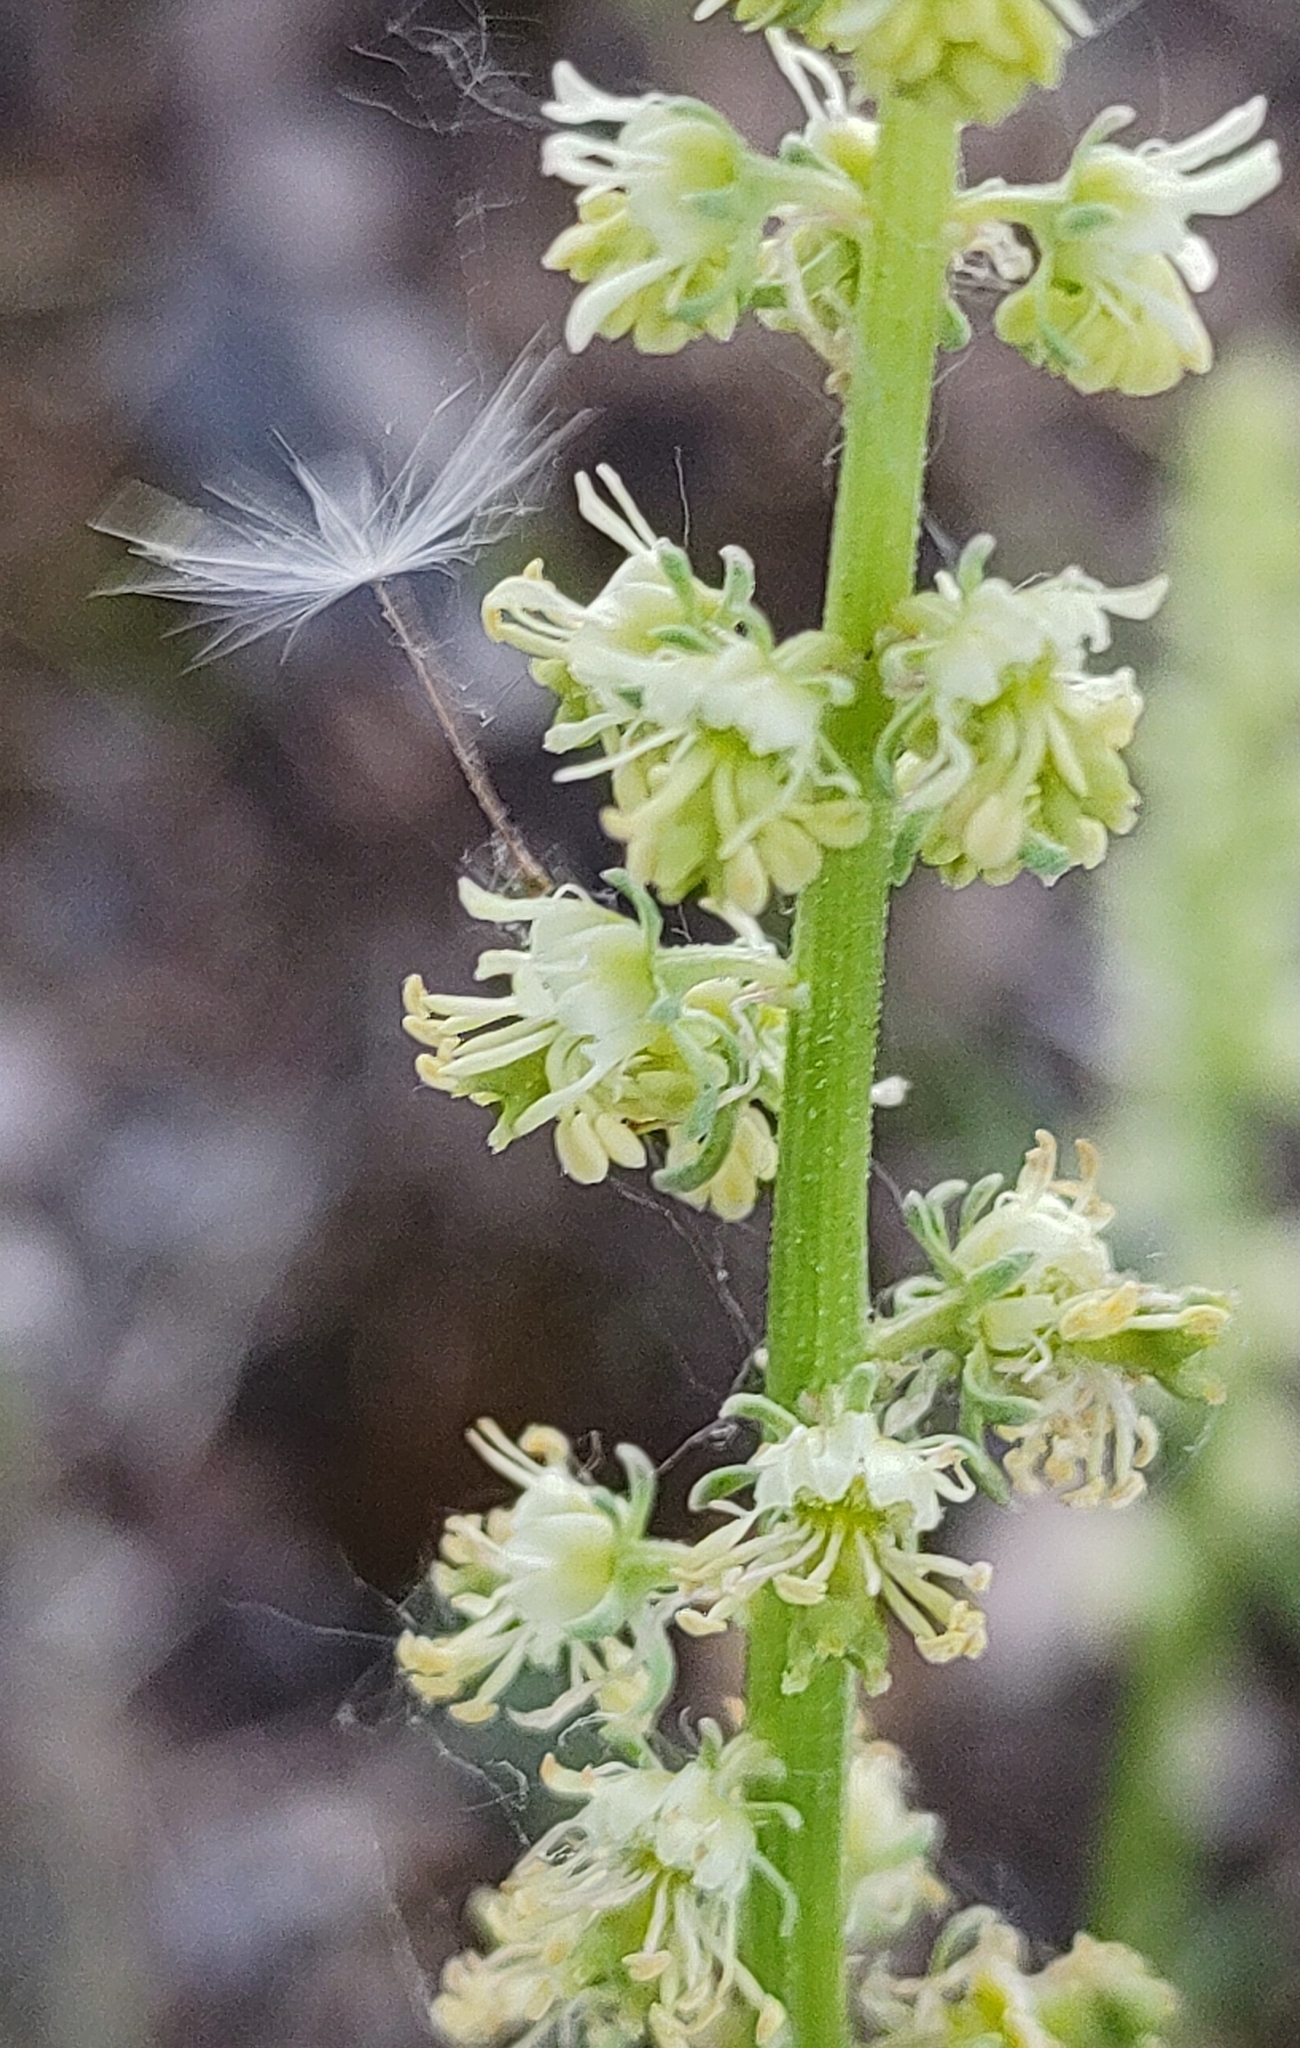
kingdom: Plantae
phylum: Tracheophyta
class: Magnoliopsida
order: Brassicales
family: Resedaceae
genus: Reseda
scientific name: Reseda lutea
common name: Wild mignonette
